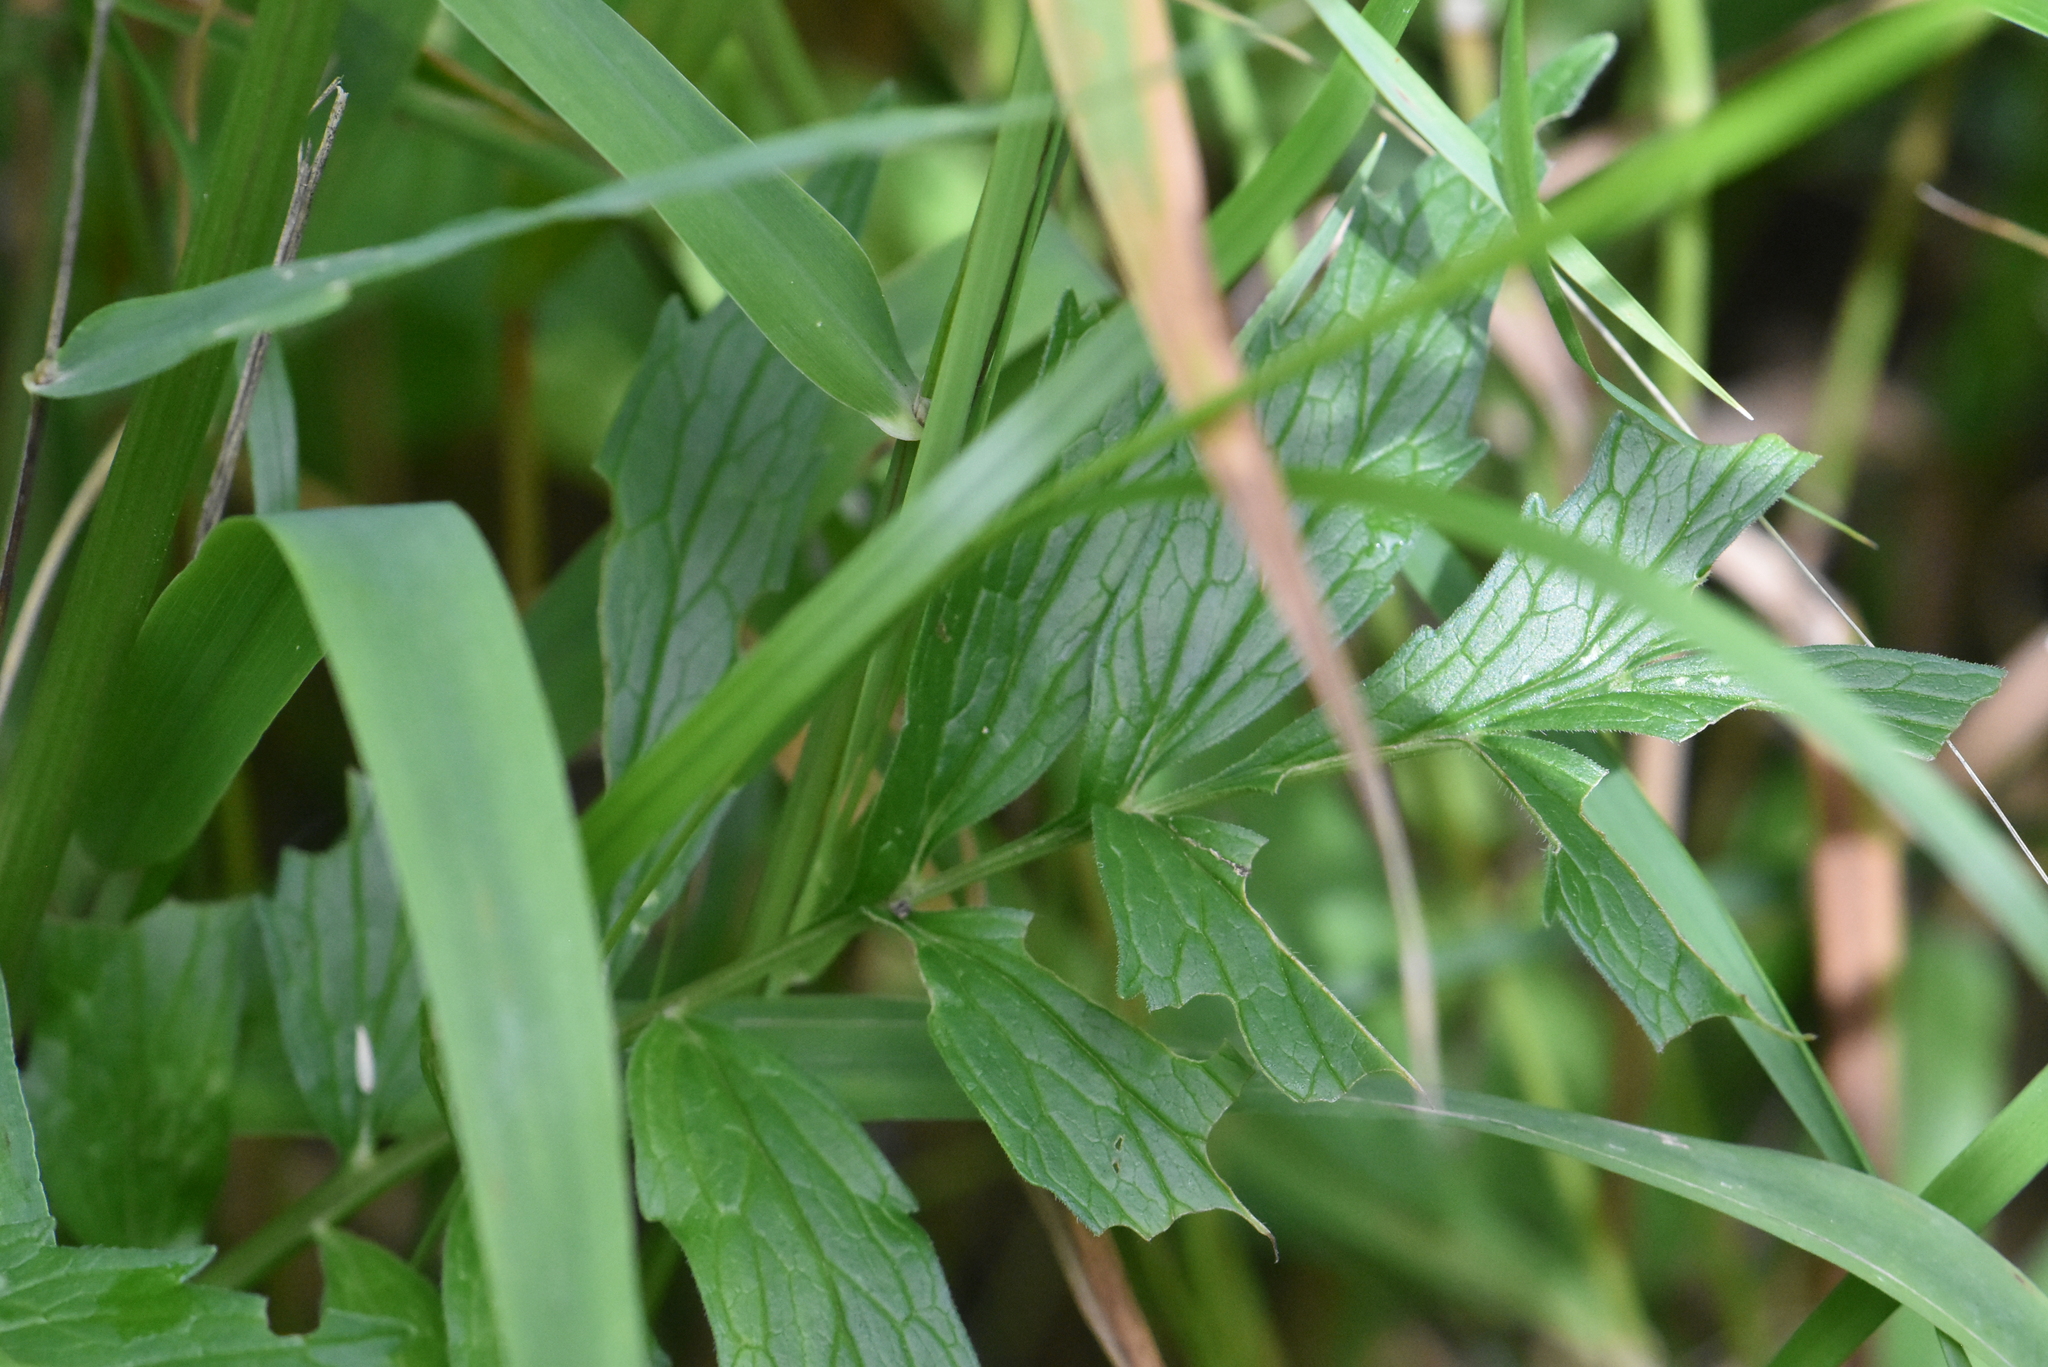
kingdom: Plantae
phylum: Tracheophyta
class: Magnoliopsida
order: Dipsacales
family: Caprifoliaceae
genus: Valeriana
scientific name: Valeriana officinalis
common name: Common valerian
